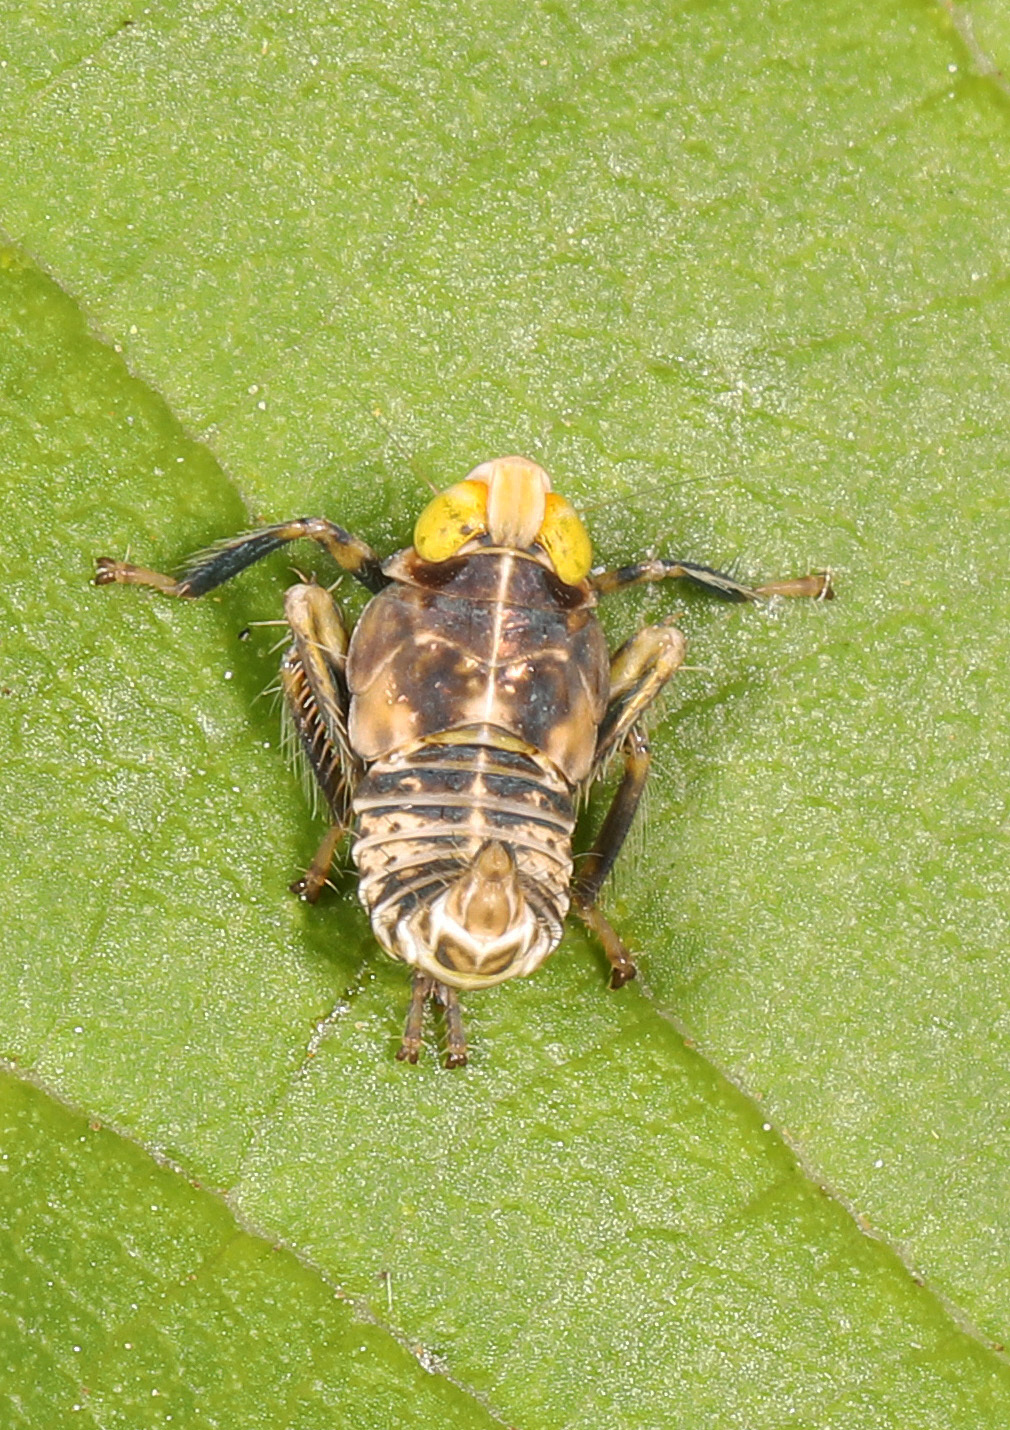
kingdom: Animalia
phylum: Arthropoda
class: Insecta
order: Hemiptera
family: Cicadellidae
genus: Jikradia
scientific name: Jikradia olitoria
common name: Coppery leafhopper
